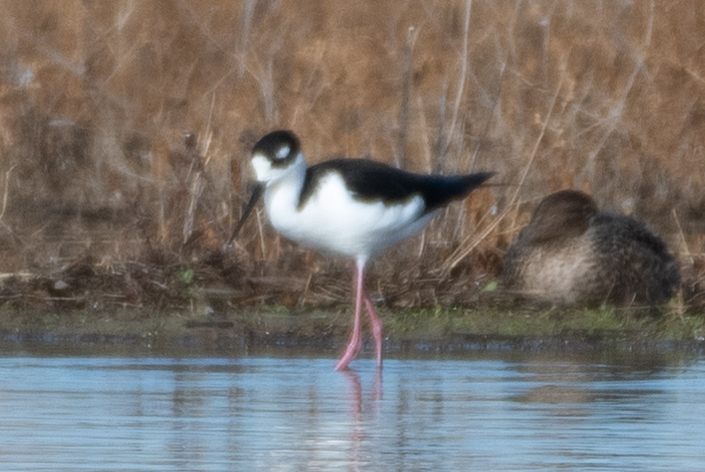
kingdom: Animalia
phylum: Chordata
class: Aves
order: Charadriiformes
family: Recurvirostridae
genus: Himantopus
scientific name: Himantopus mexicanus
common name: Black-necked stilt
